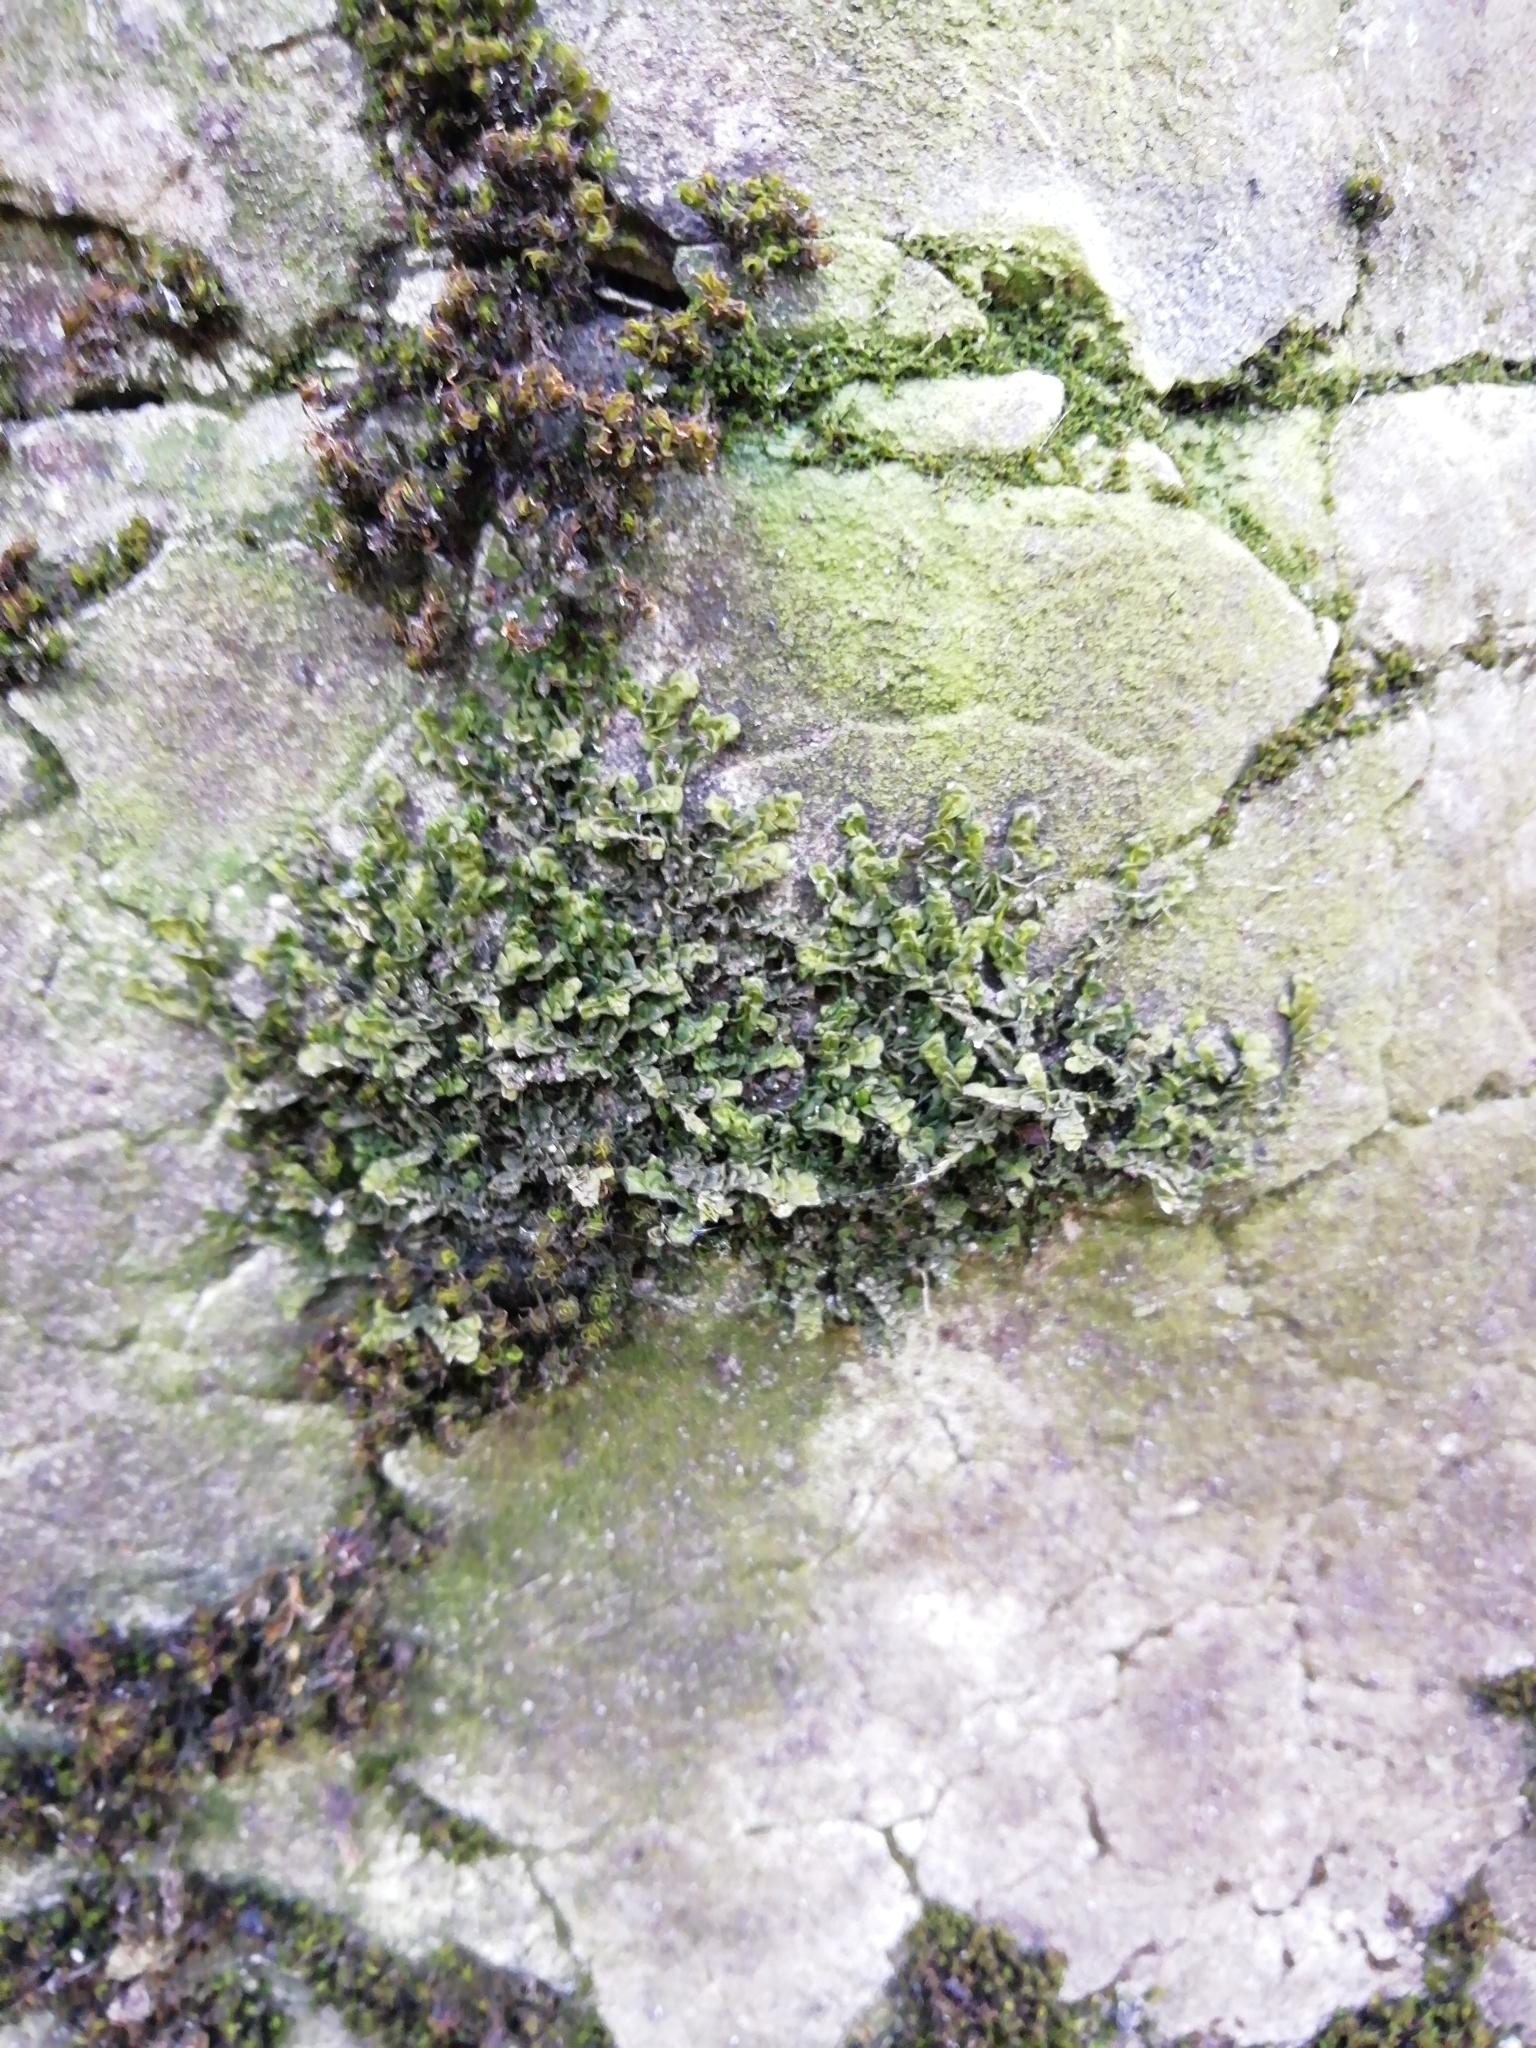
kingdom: Plantae
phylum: Marchantiophyta
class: Jungermanniopsida
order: Porellales
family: Porellaceae
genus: Porella
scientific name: Porella platyphylla
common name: Wall scalewort
